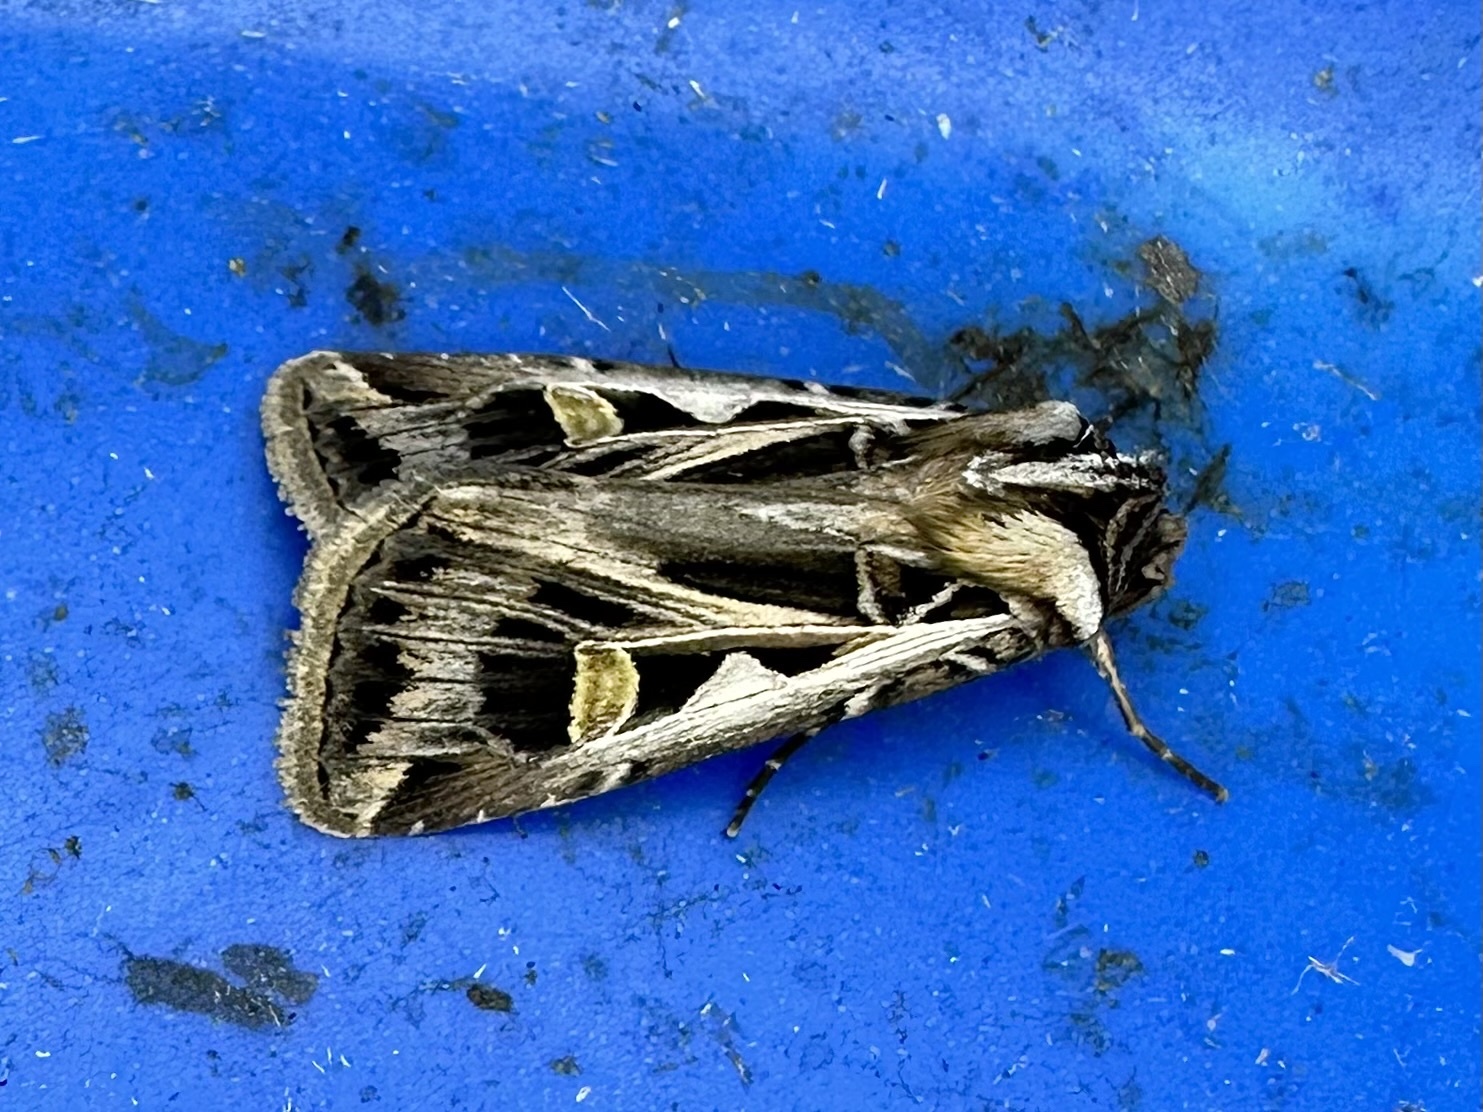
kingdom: Animalia
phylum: Arthropoda
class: Insecta
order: Lepidoptera
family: Noctuidae
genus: Feltia
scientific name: Feltia jaculifera
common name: Dingy cutworm moth
